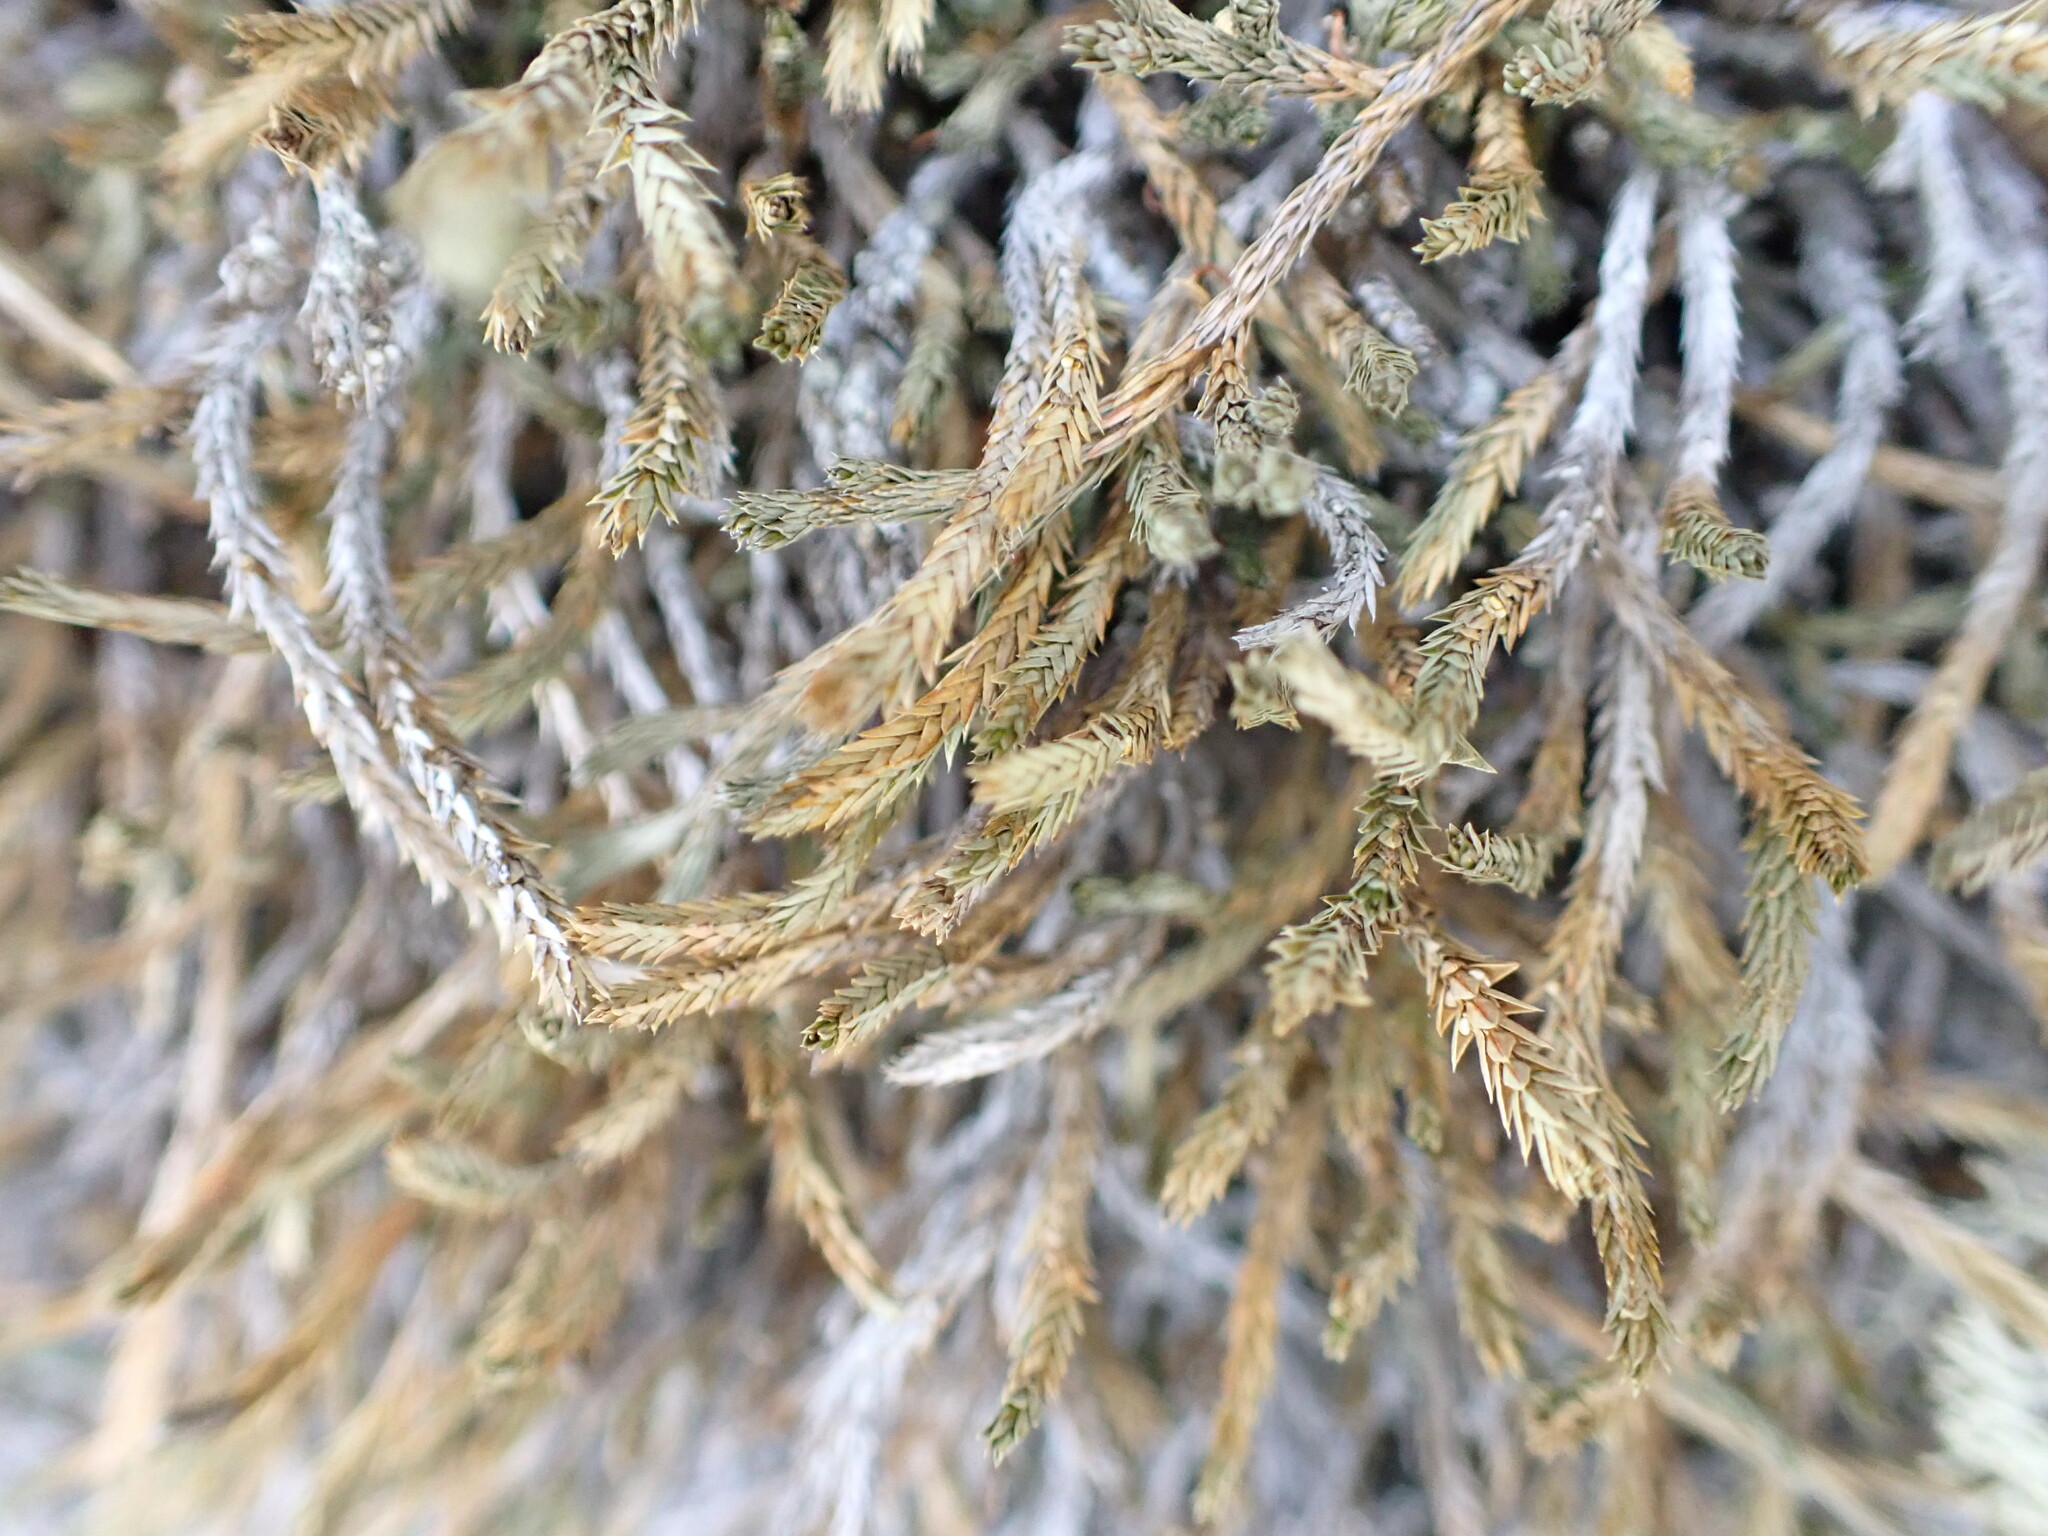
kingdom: Plantae
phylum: Tracheophyta
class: Lycopodiopsida
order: Selaginellales
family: Selaginellaceae
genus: Selaginella
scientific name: Selaginella wallacei
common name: Wallace's selaginella
